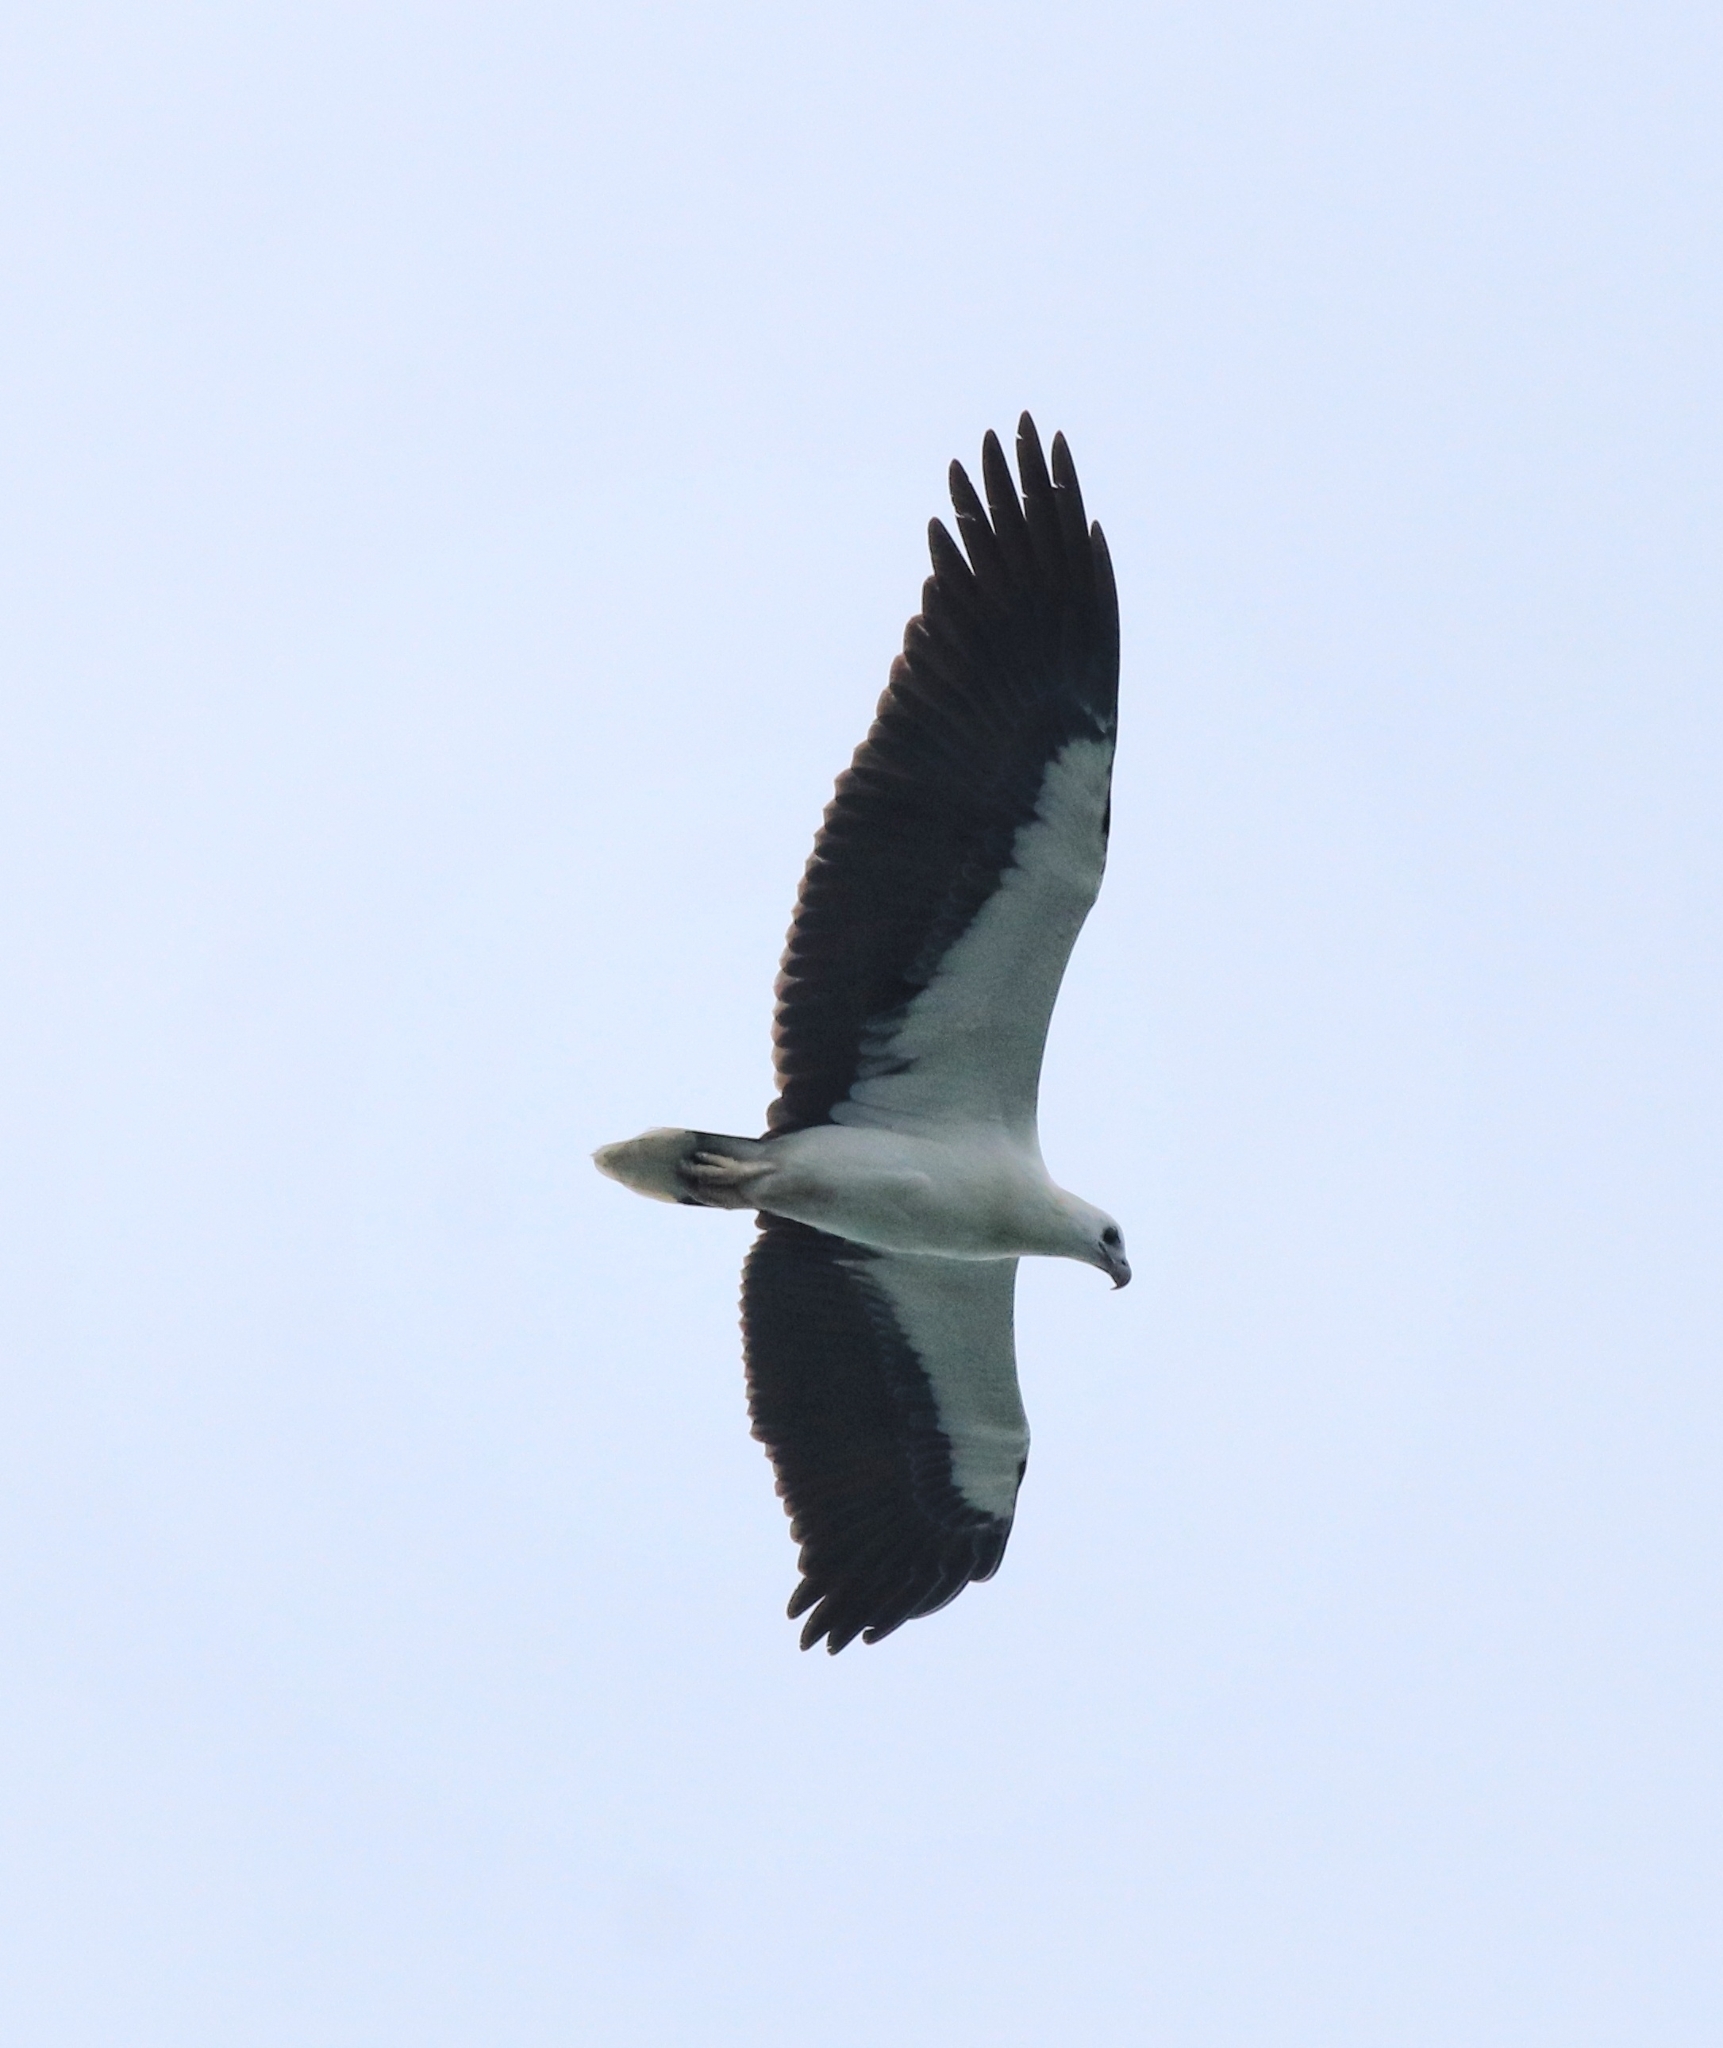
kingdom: Animalia
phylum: Chordata
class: Aves
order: Accipitriformes
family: Accipitridae
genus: Haliaeetus
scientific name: Haliaeetus leucogaster
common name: White-bellied sea eagle
